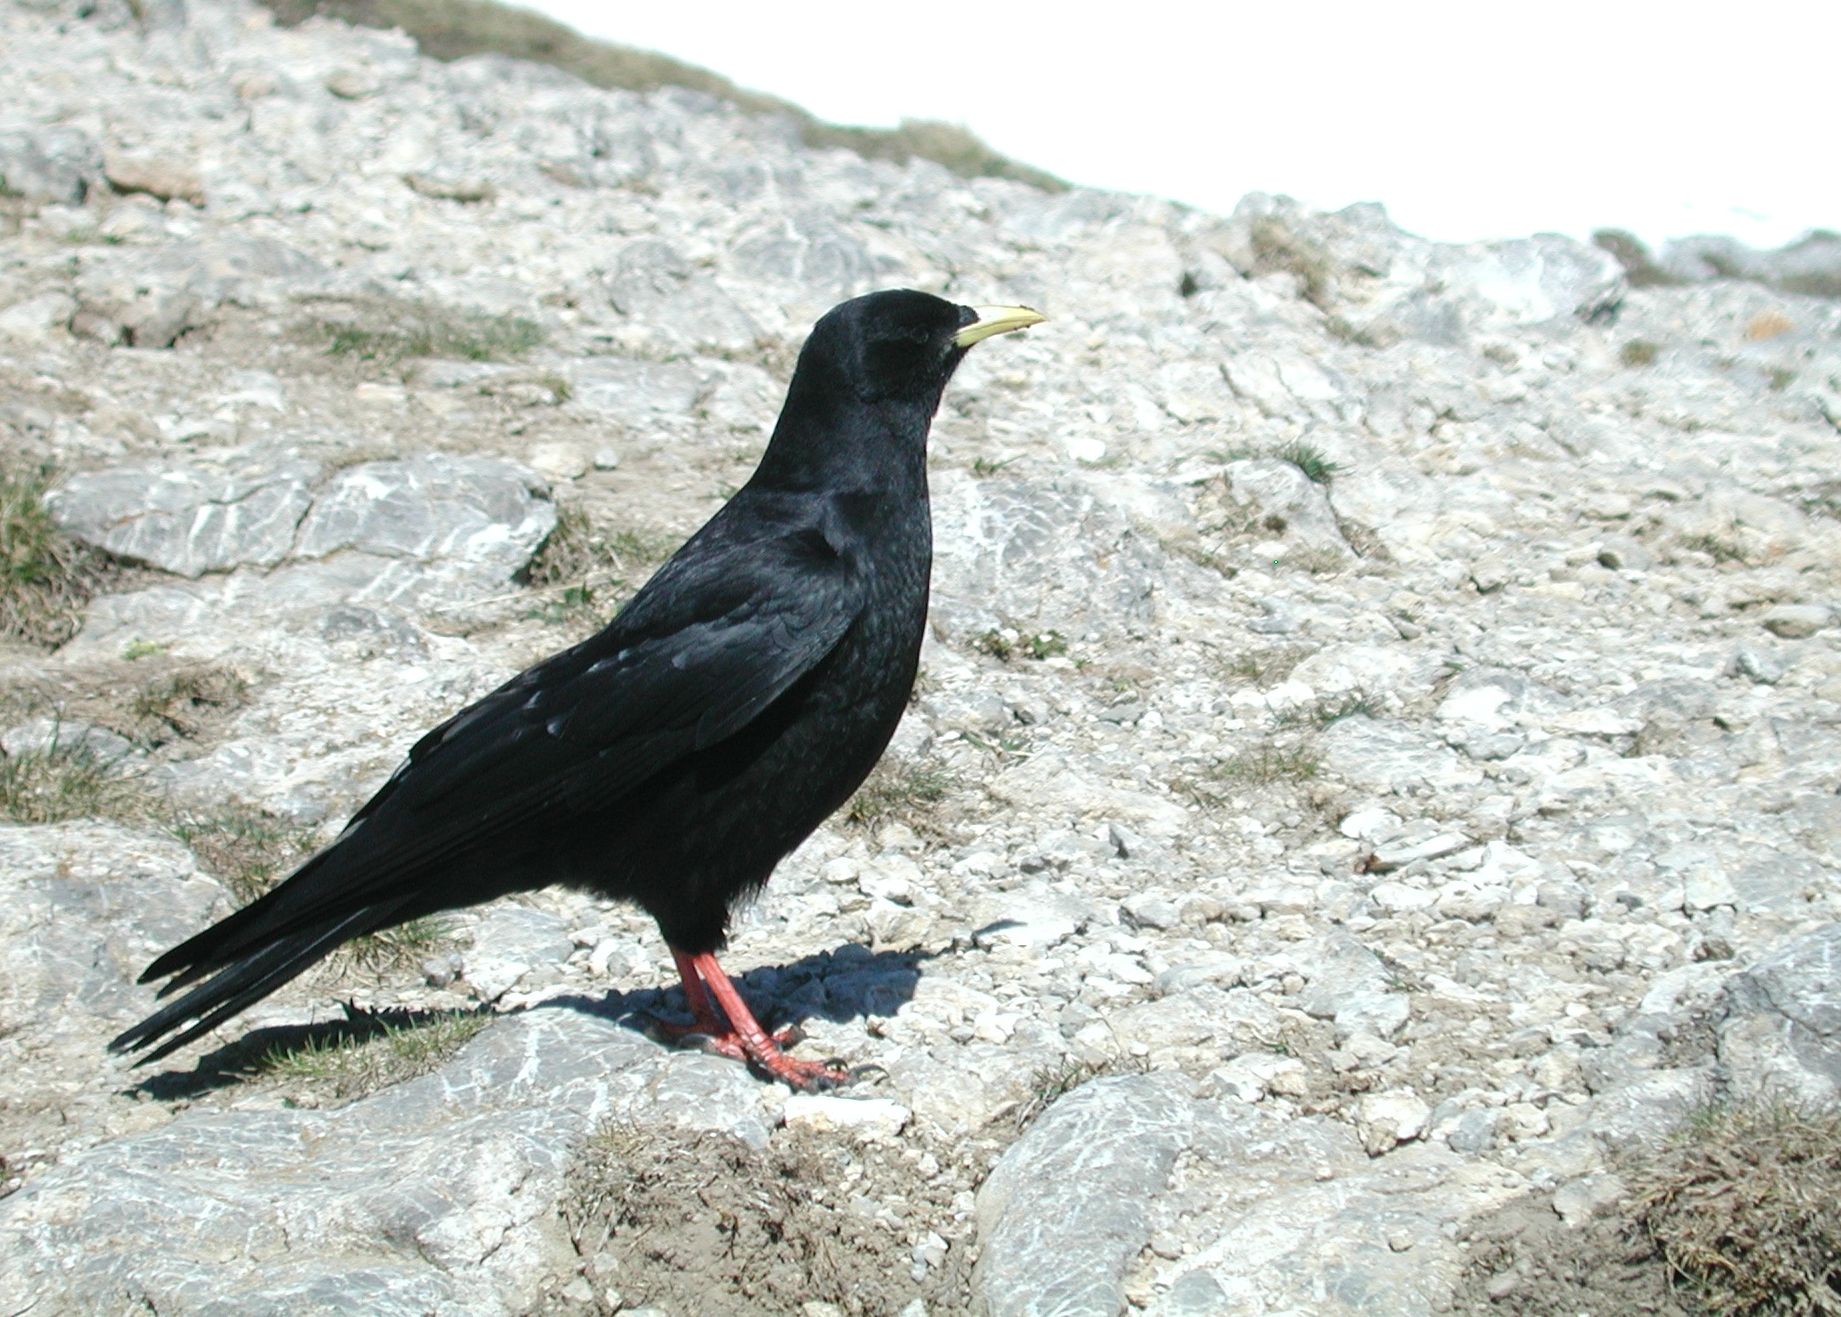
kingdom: Animalia
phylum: Chordata
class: Aves
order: Passeriformes
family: Corvidae
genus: Pyrrhocorax
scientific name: Pyrrhocorax graculus
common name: Alpine chough
